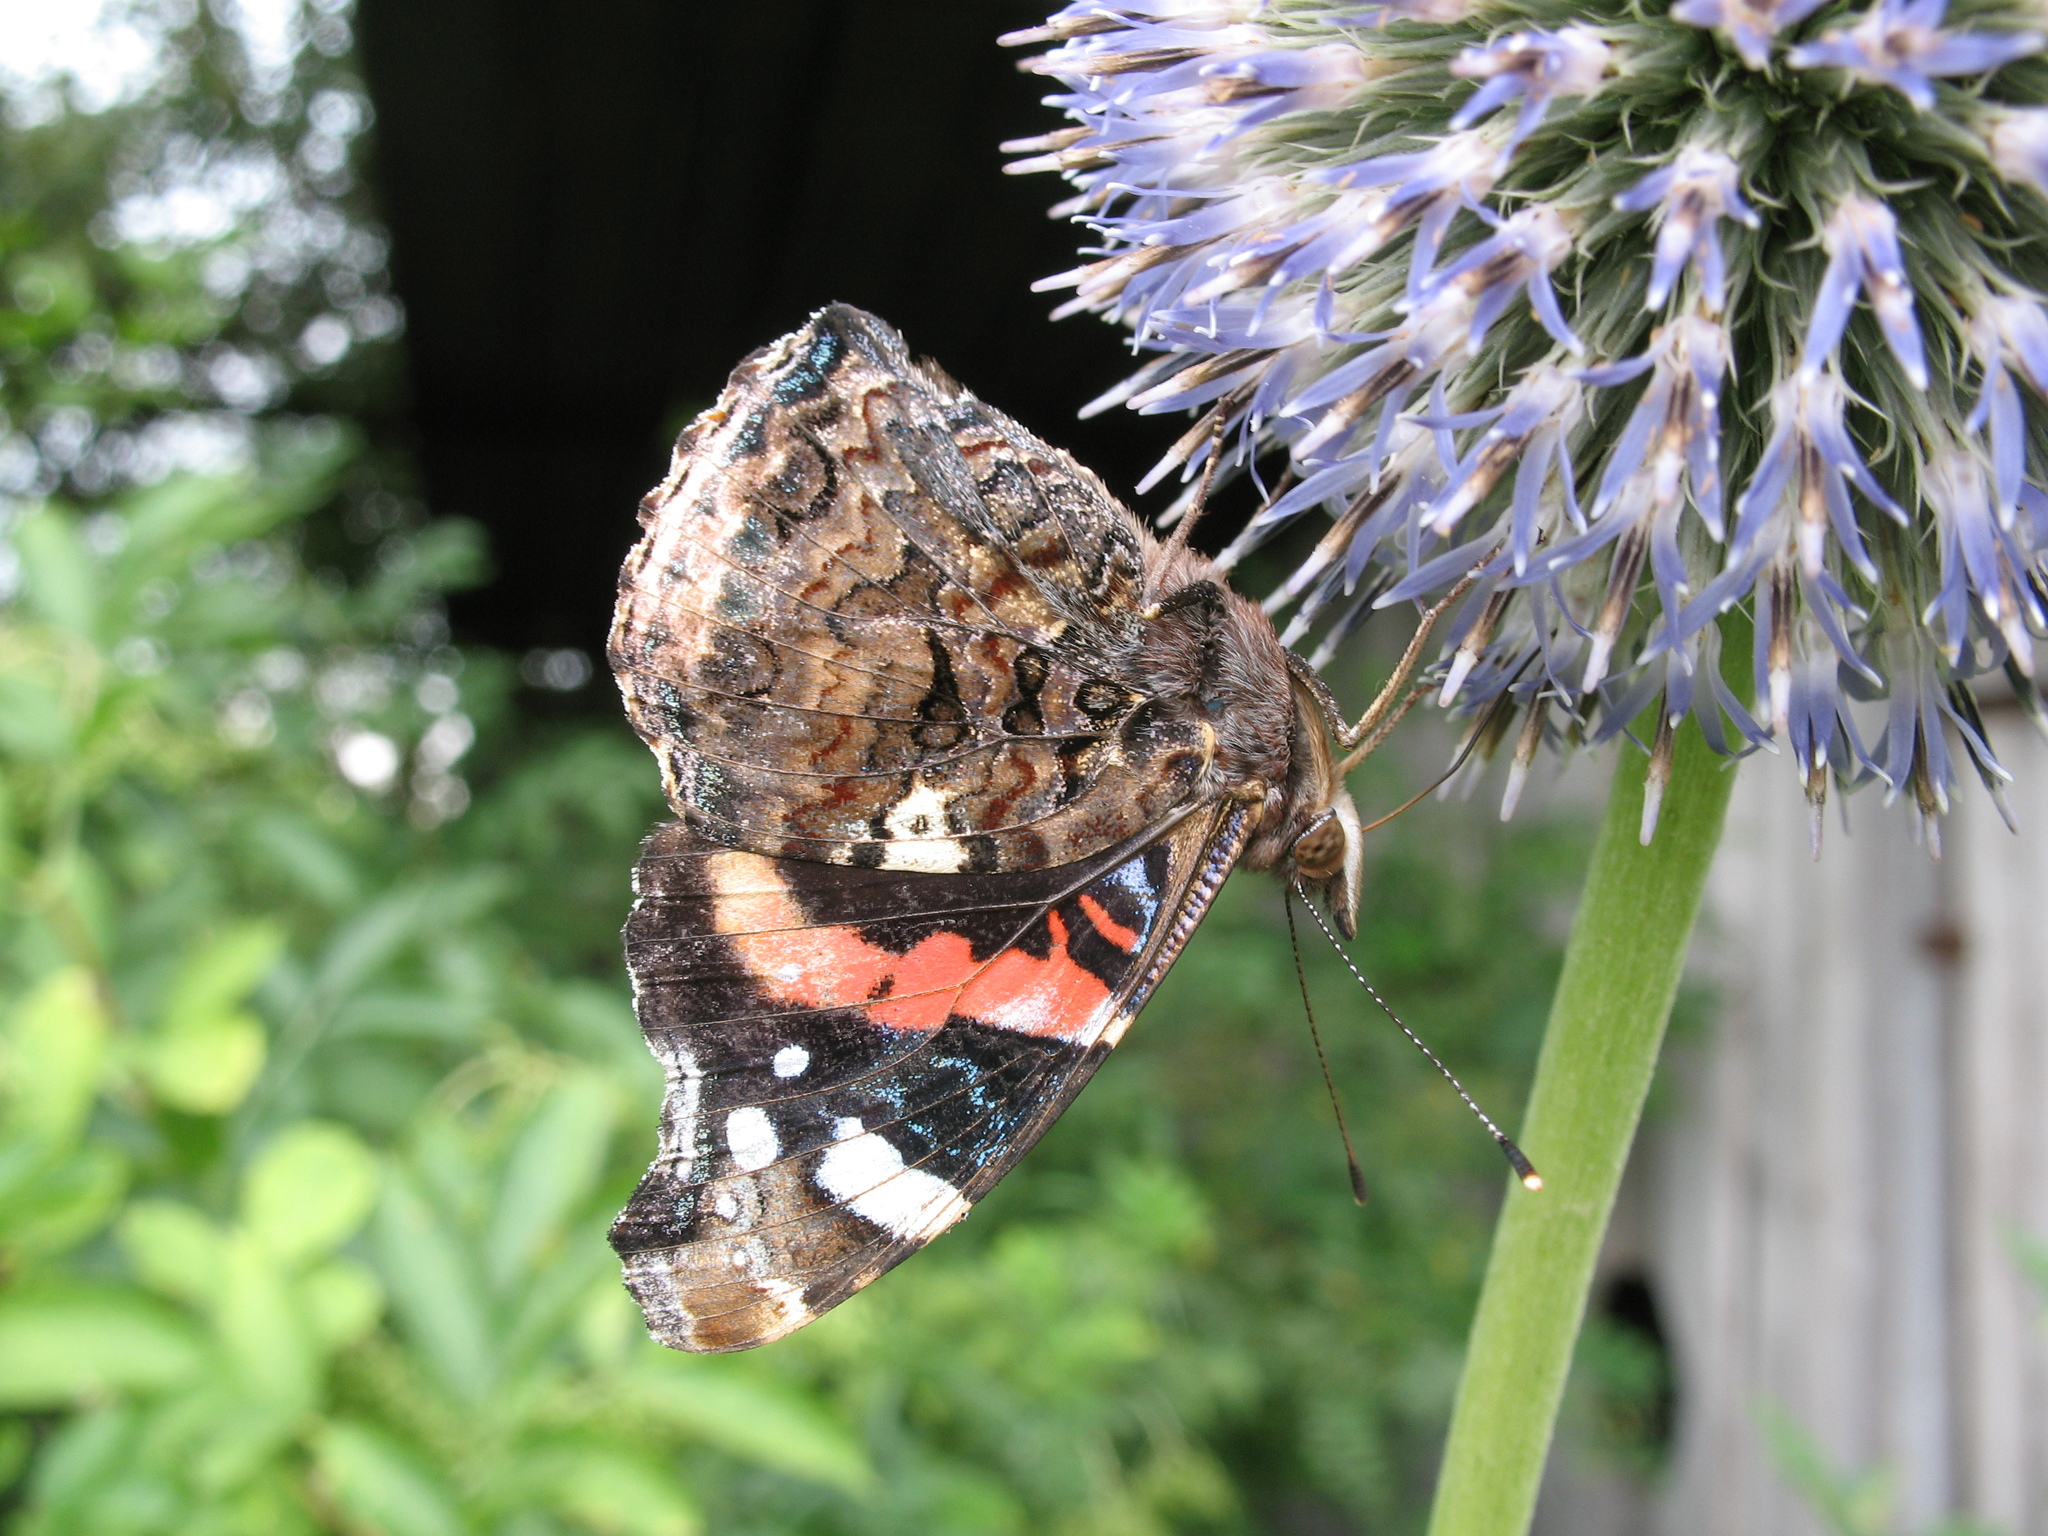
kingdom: Animalia
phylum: Arthropoda
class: Insecta
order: Lepidoptera
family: Nymphalidae
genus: Vanessa
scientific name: Vanessa atalanta
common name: Red admiral
